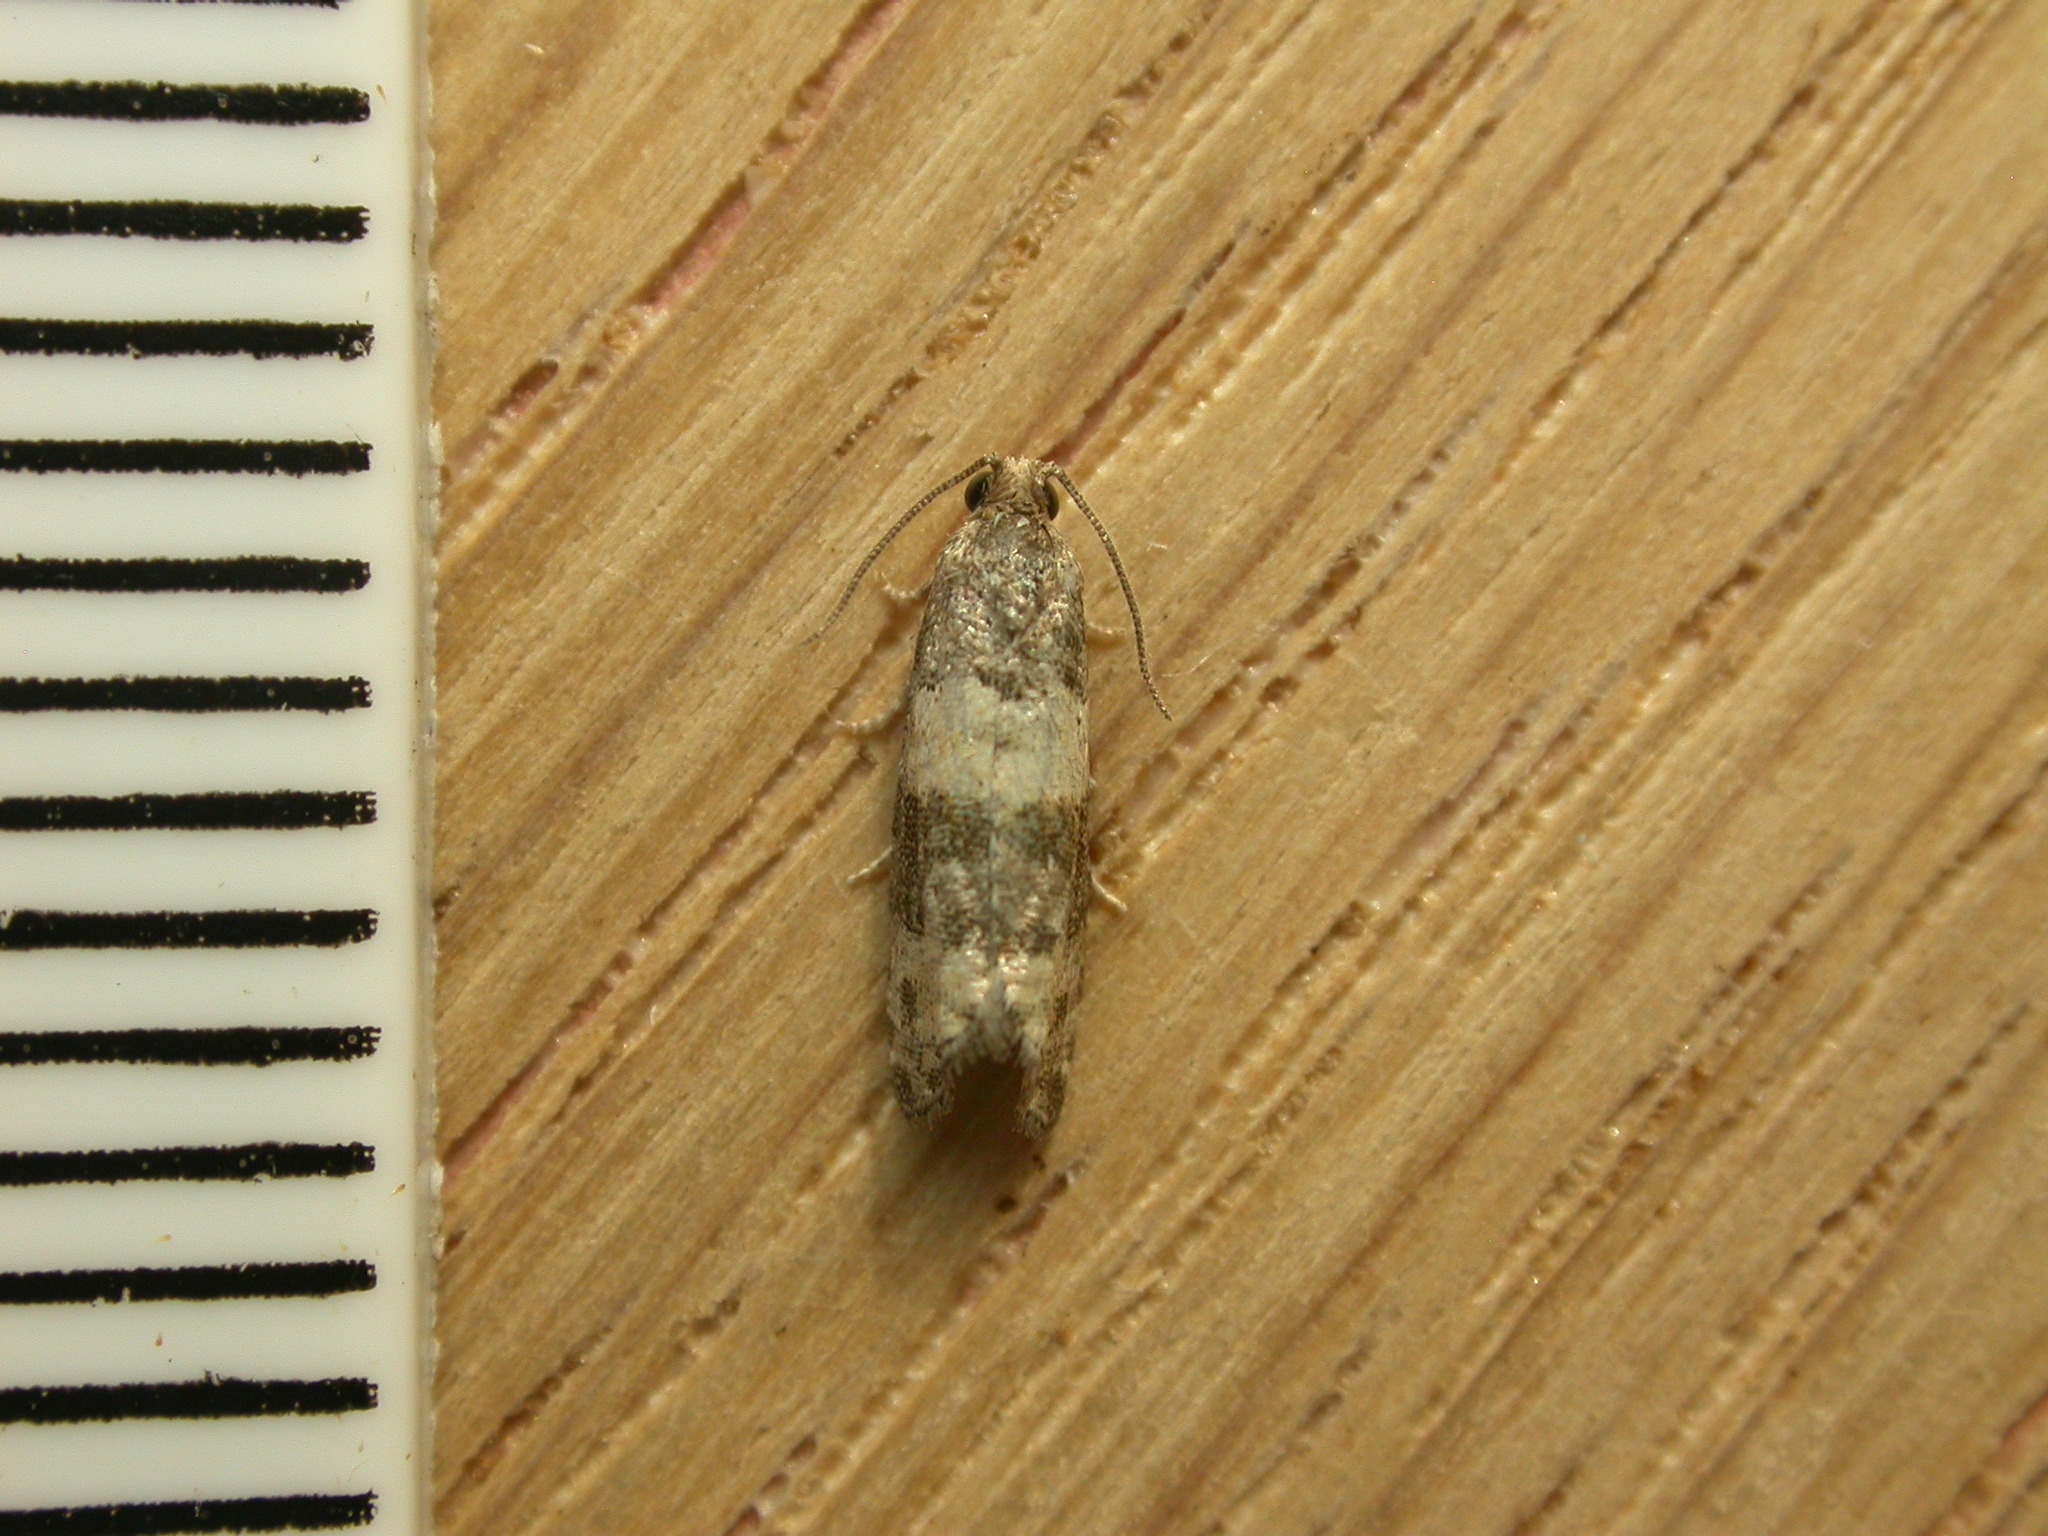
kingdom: Animalia
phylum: Arthropoda
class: Insecta
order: Lepidoptera
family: Tortricidae
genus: Piniphila
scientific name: Piniphila bifasciana
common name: Pine marble
